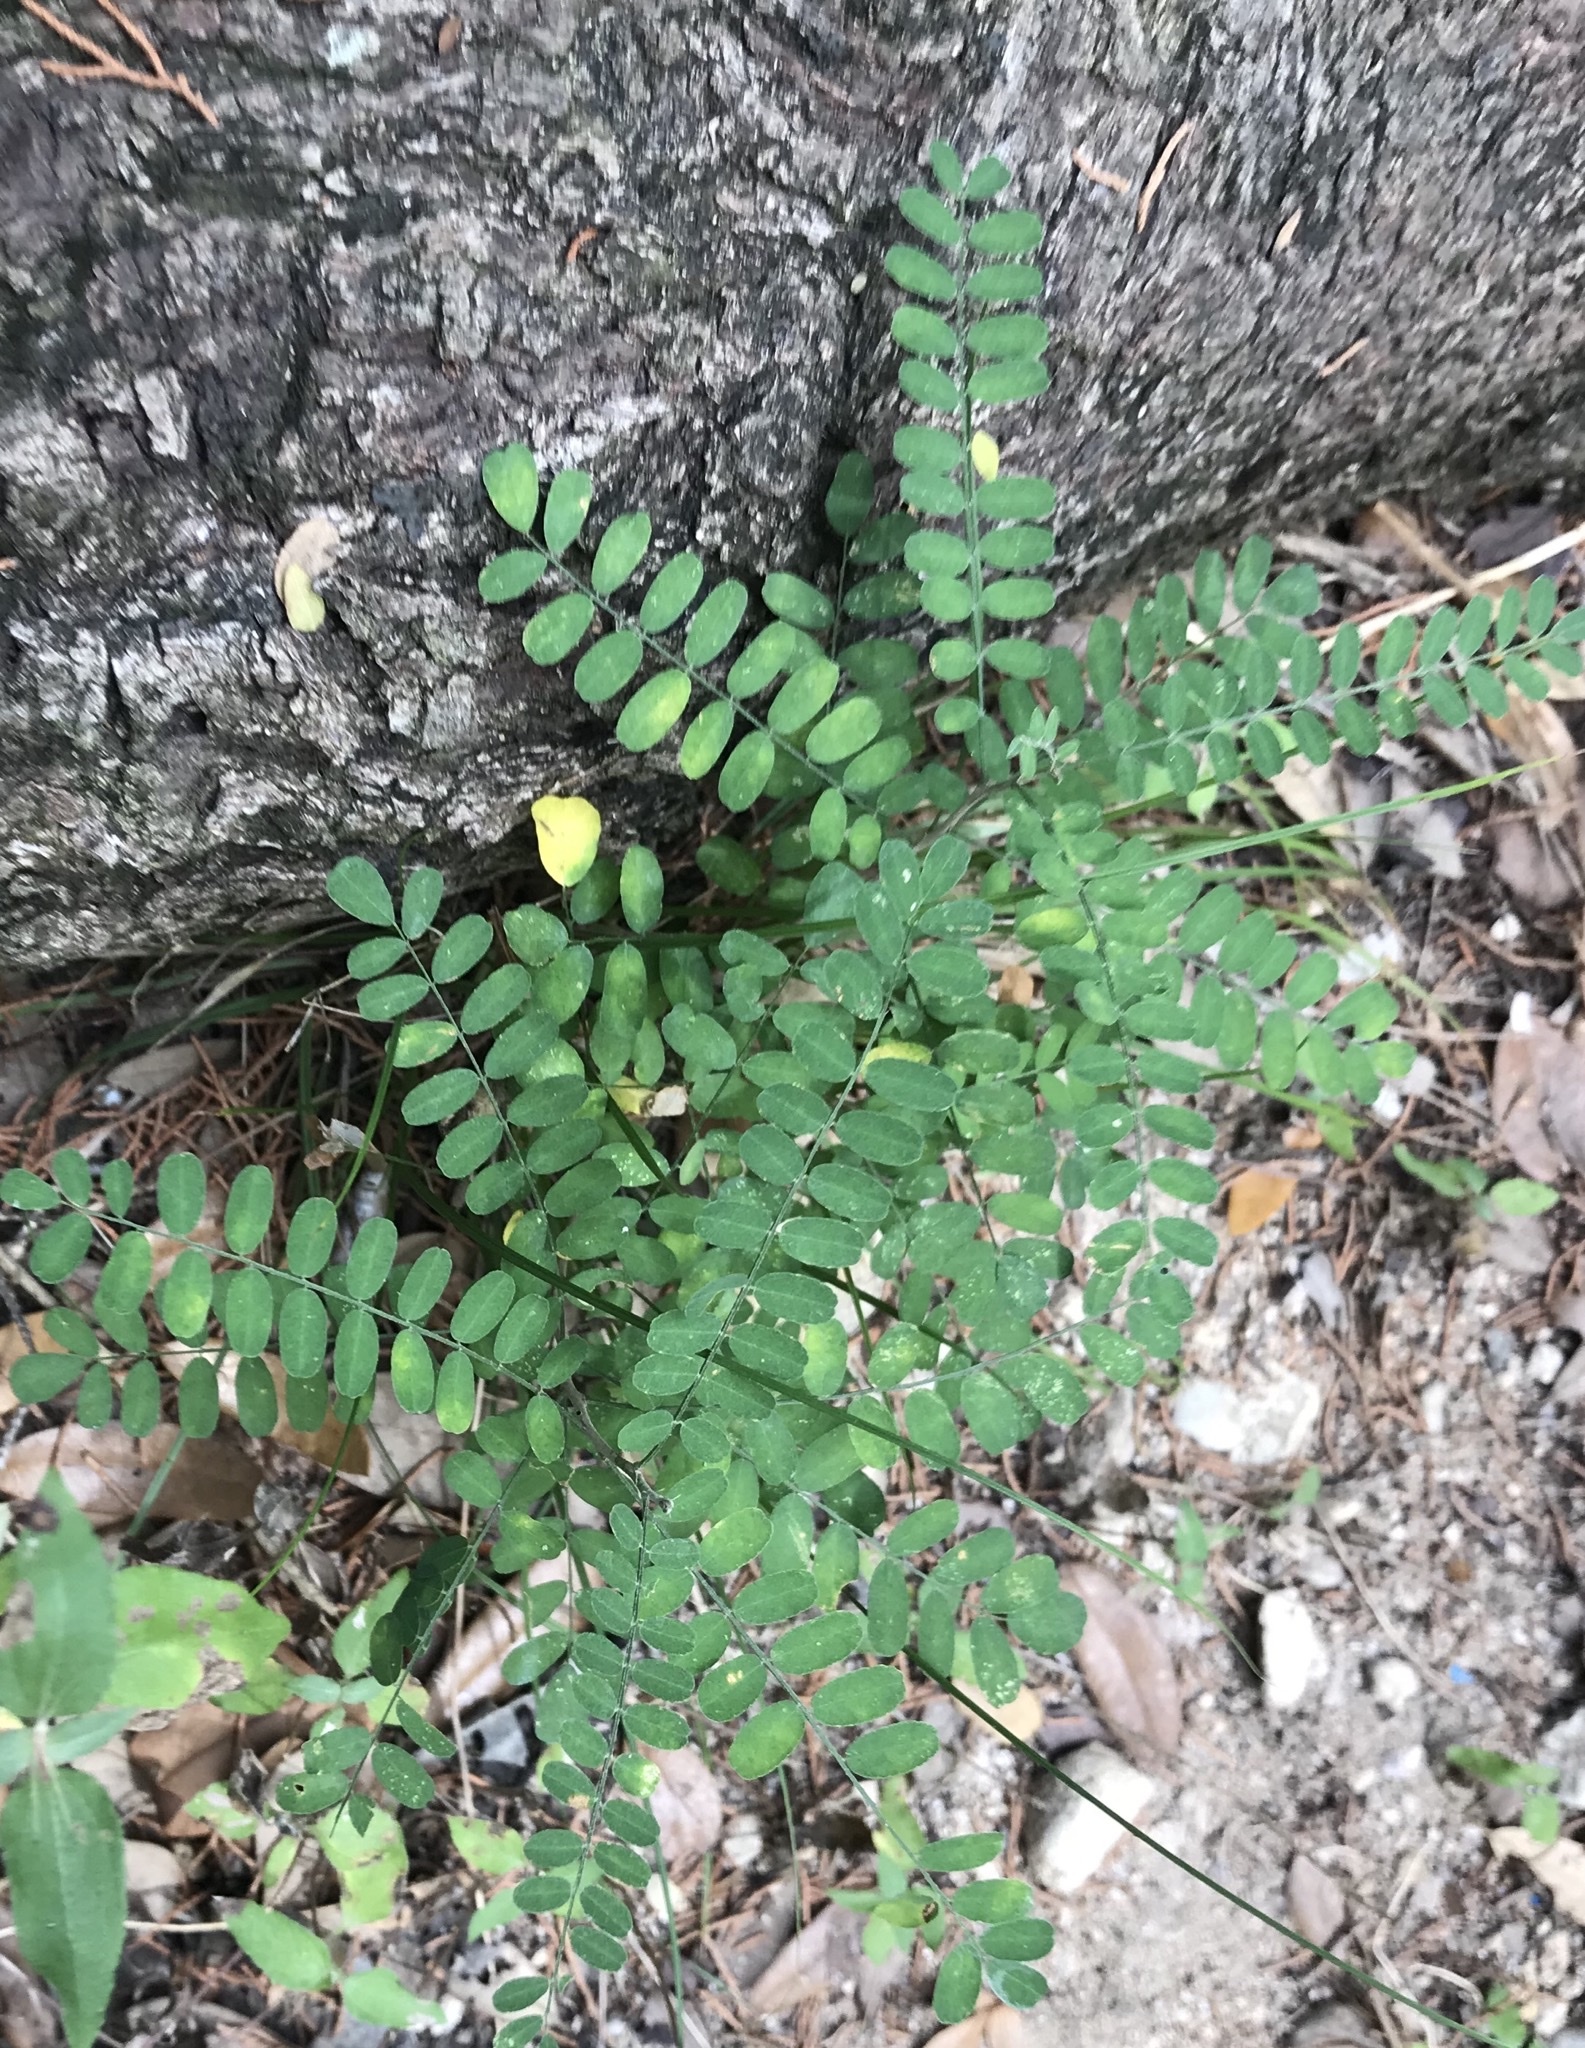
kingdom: Plantae
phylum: Tracheophyta
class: Magnoliopsida
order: Fabales
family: Fabaceae
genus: Eysenhardtia
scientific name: Eysenhardtia texana
